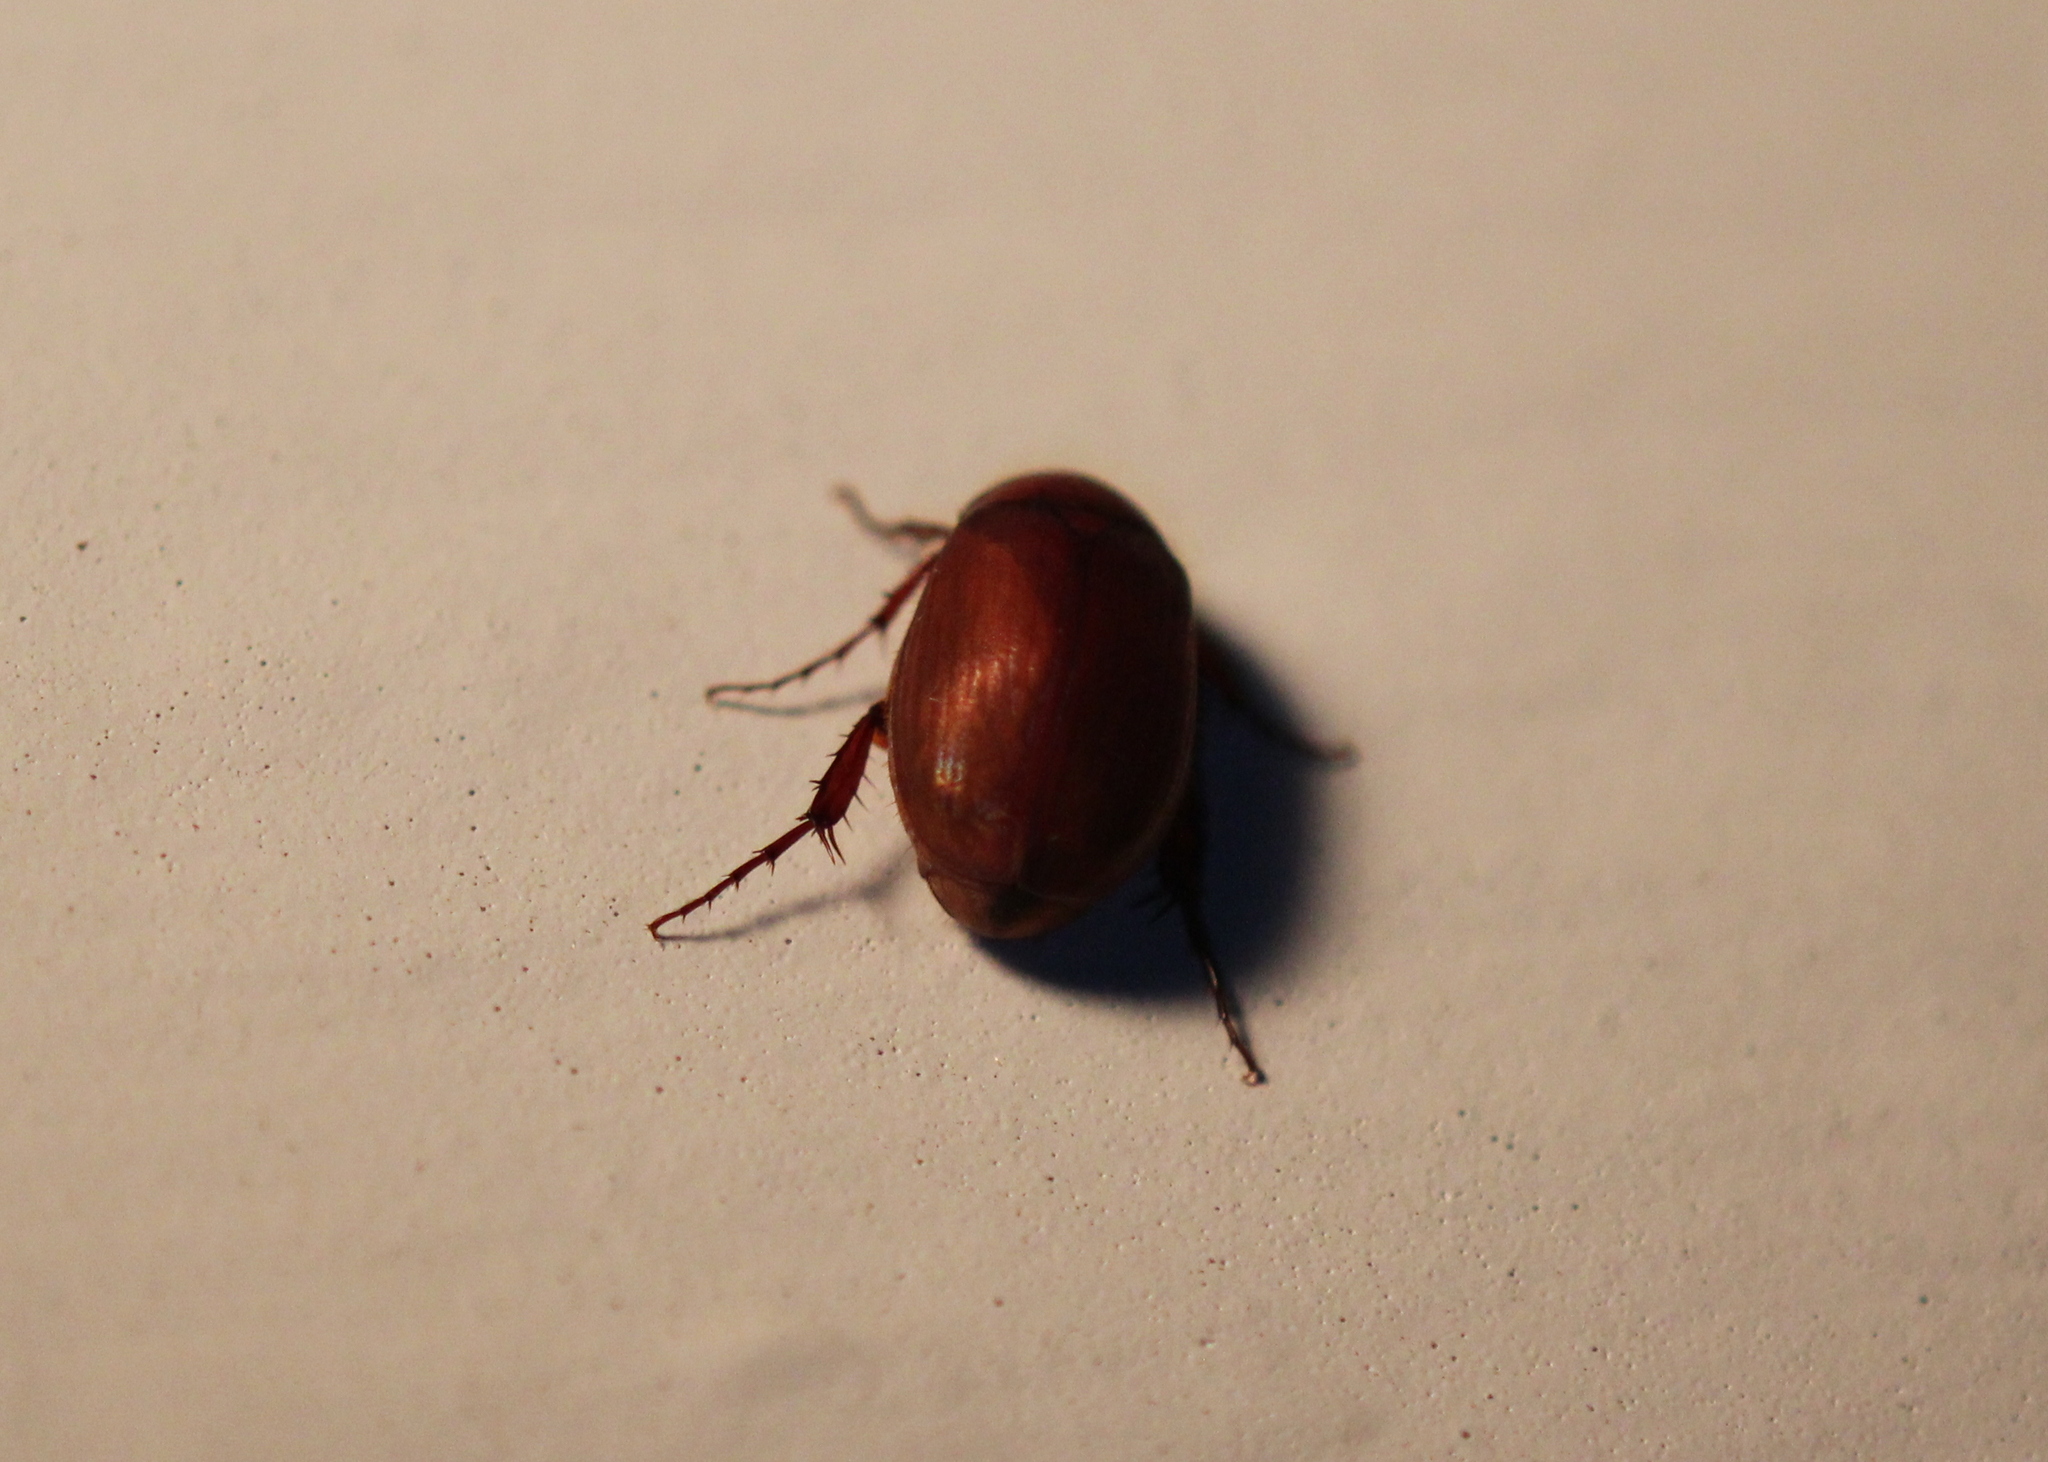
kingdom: Animalia
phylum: Arthropoda
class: Insecta
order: Coleoptera
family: Scarabaeidae
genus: Maladera
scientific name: Maladera formosae
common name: Asiatic garden beetle
